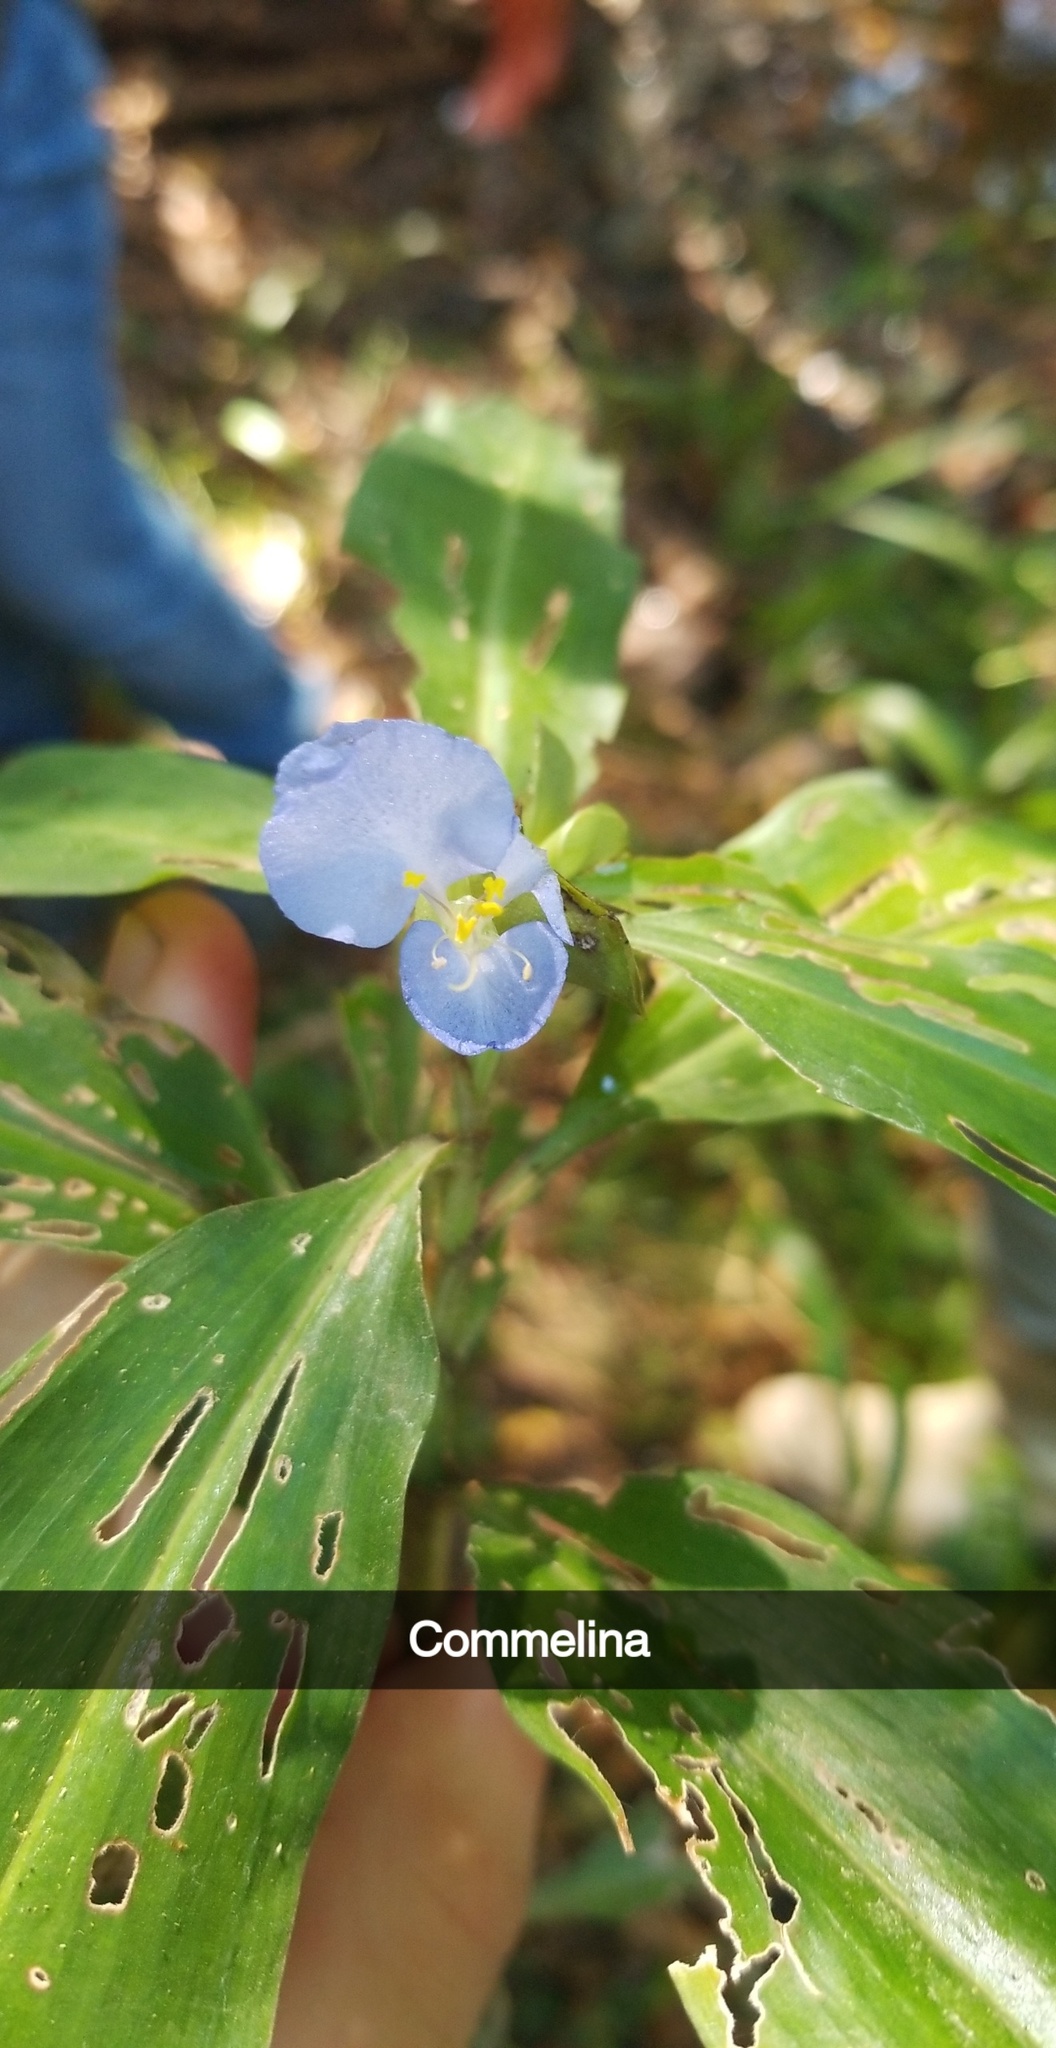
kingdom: Plantae
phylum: Tracheophyta
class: Liliopsida
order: Commelinales
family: Commelinaceae
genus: Commelina
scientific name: Commelina virginica
